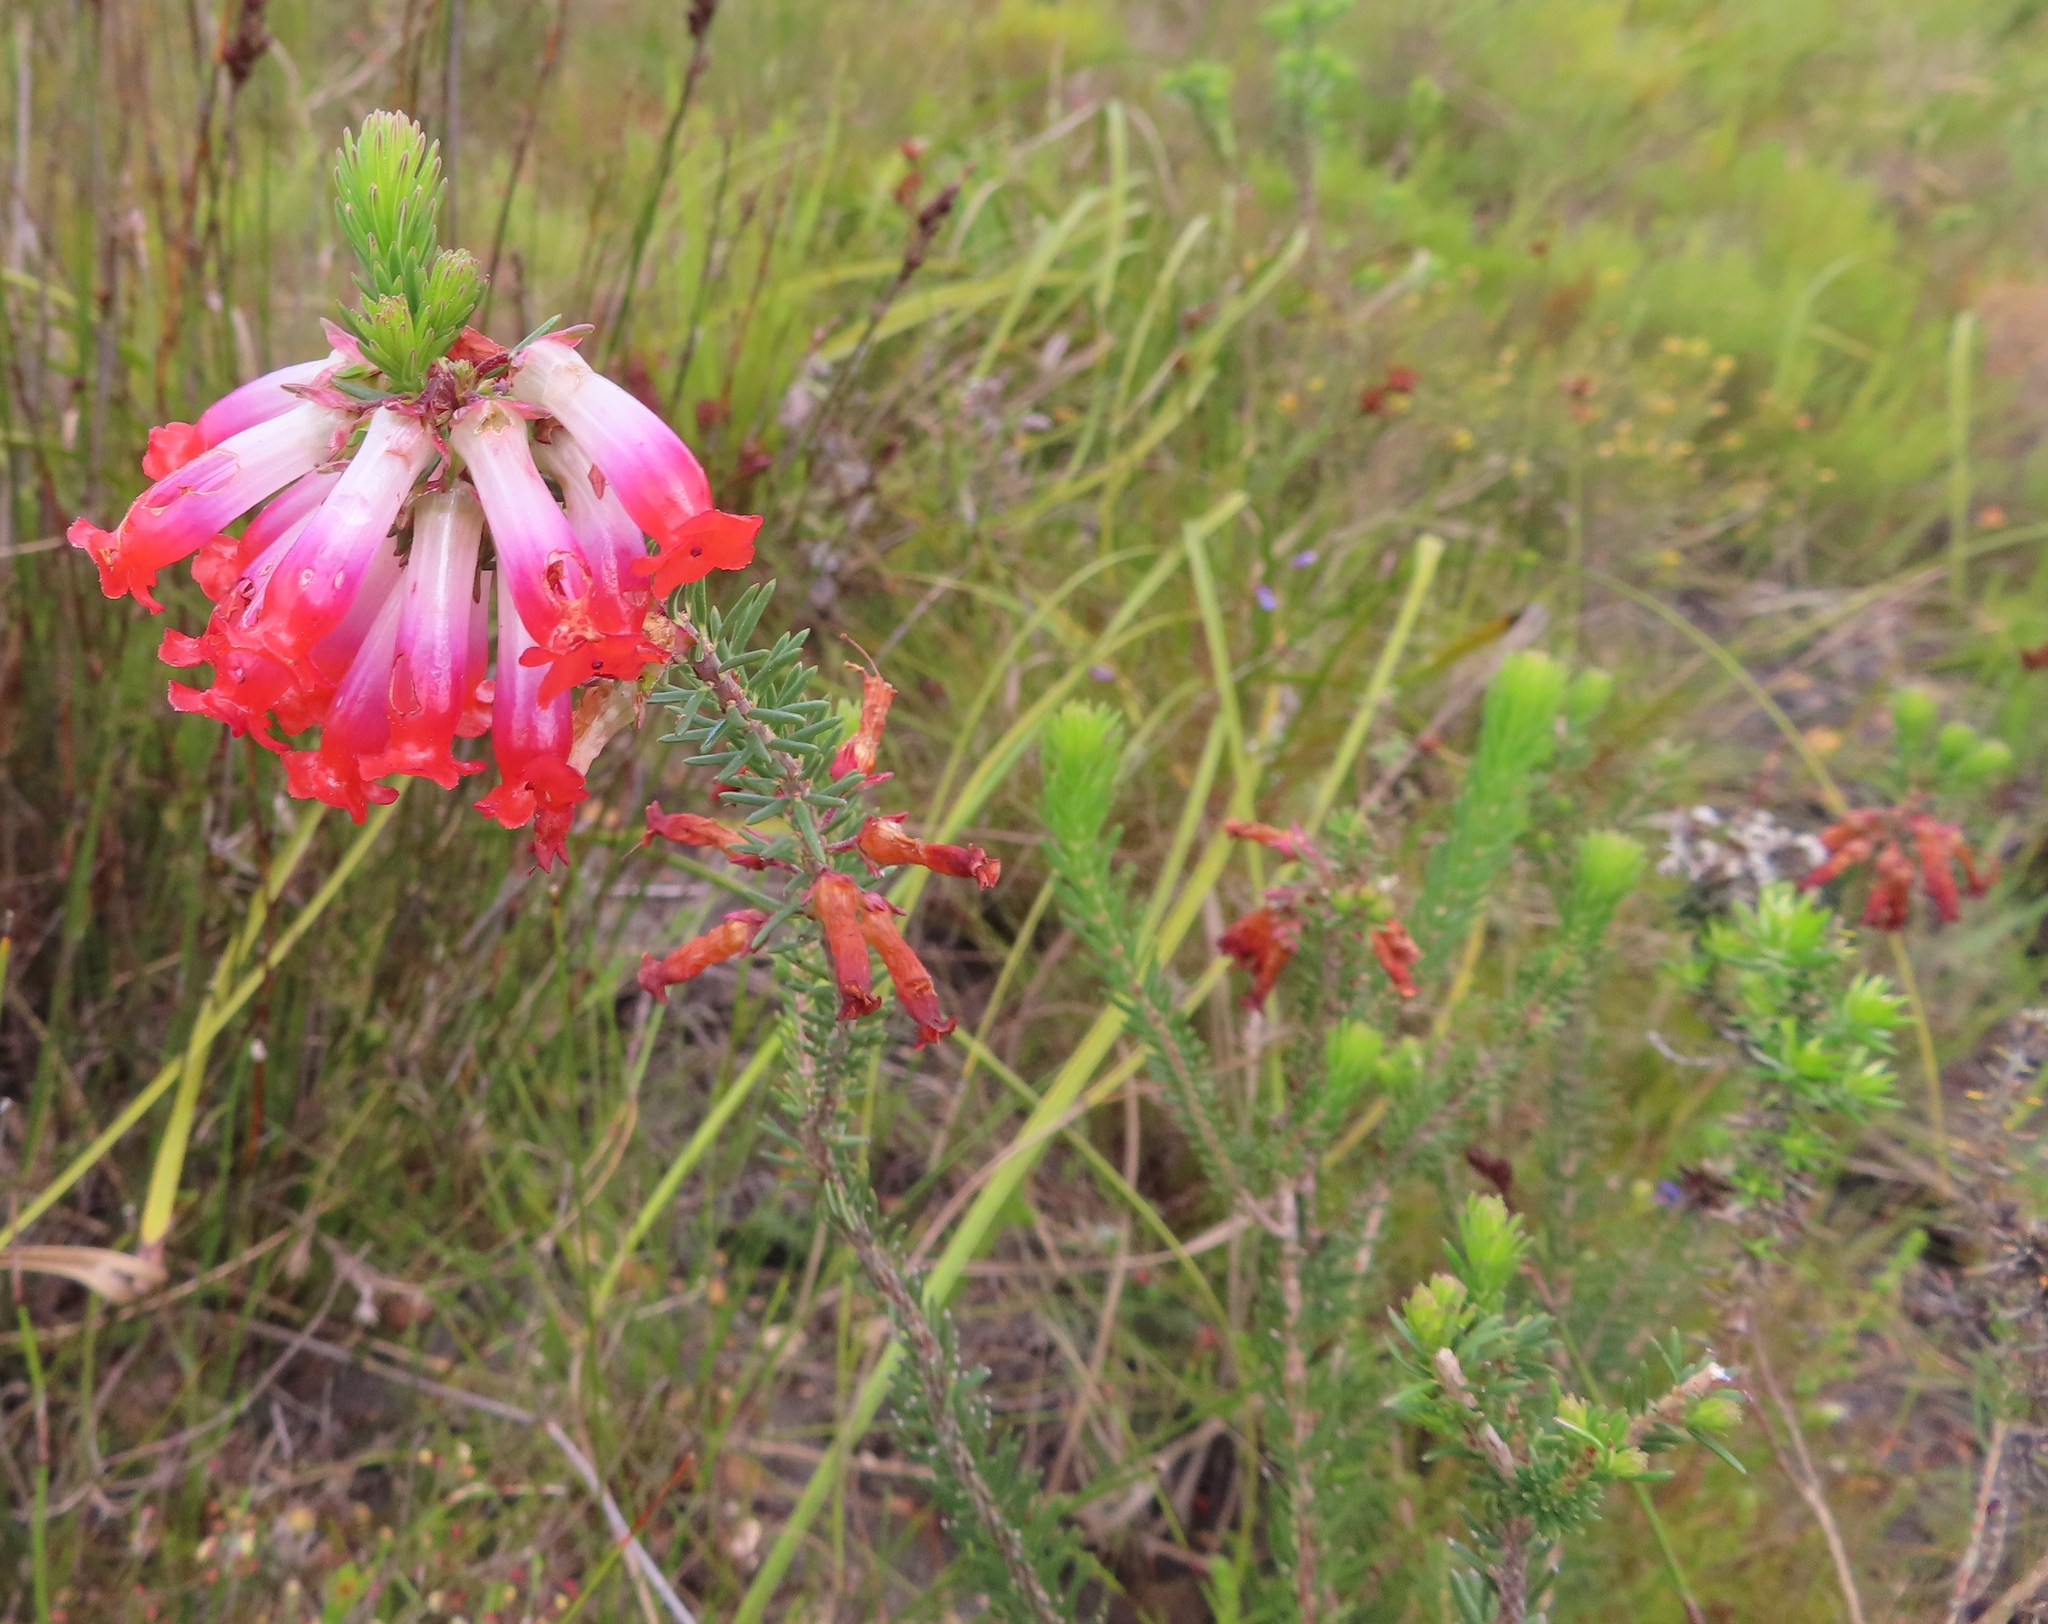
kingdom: Plantae
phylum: Tracheophyta
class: Magnoliopsida
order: Ericales
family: Ericaceae
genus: Erica
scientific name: Erica regia
